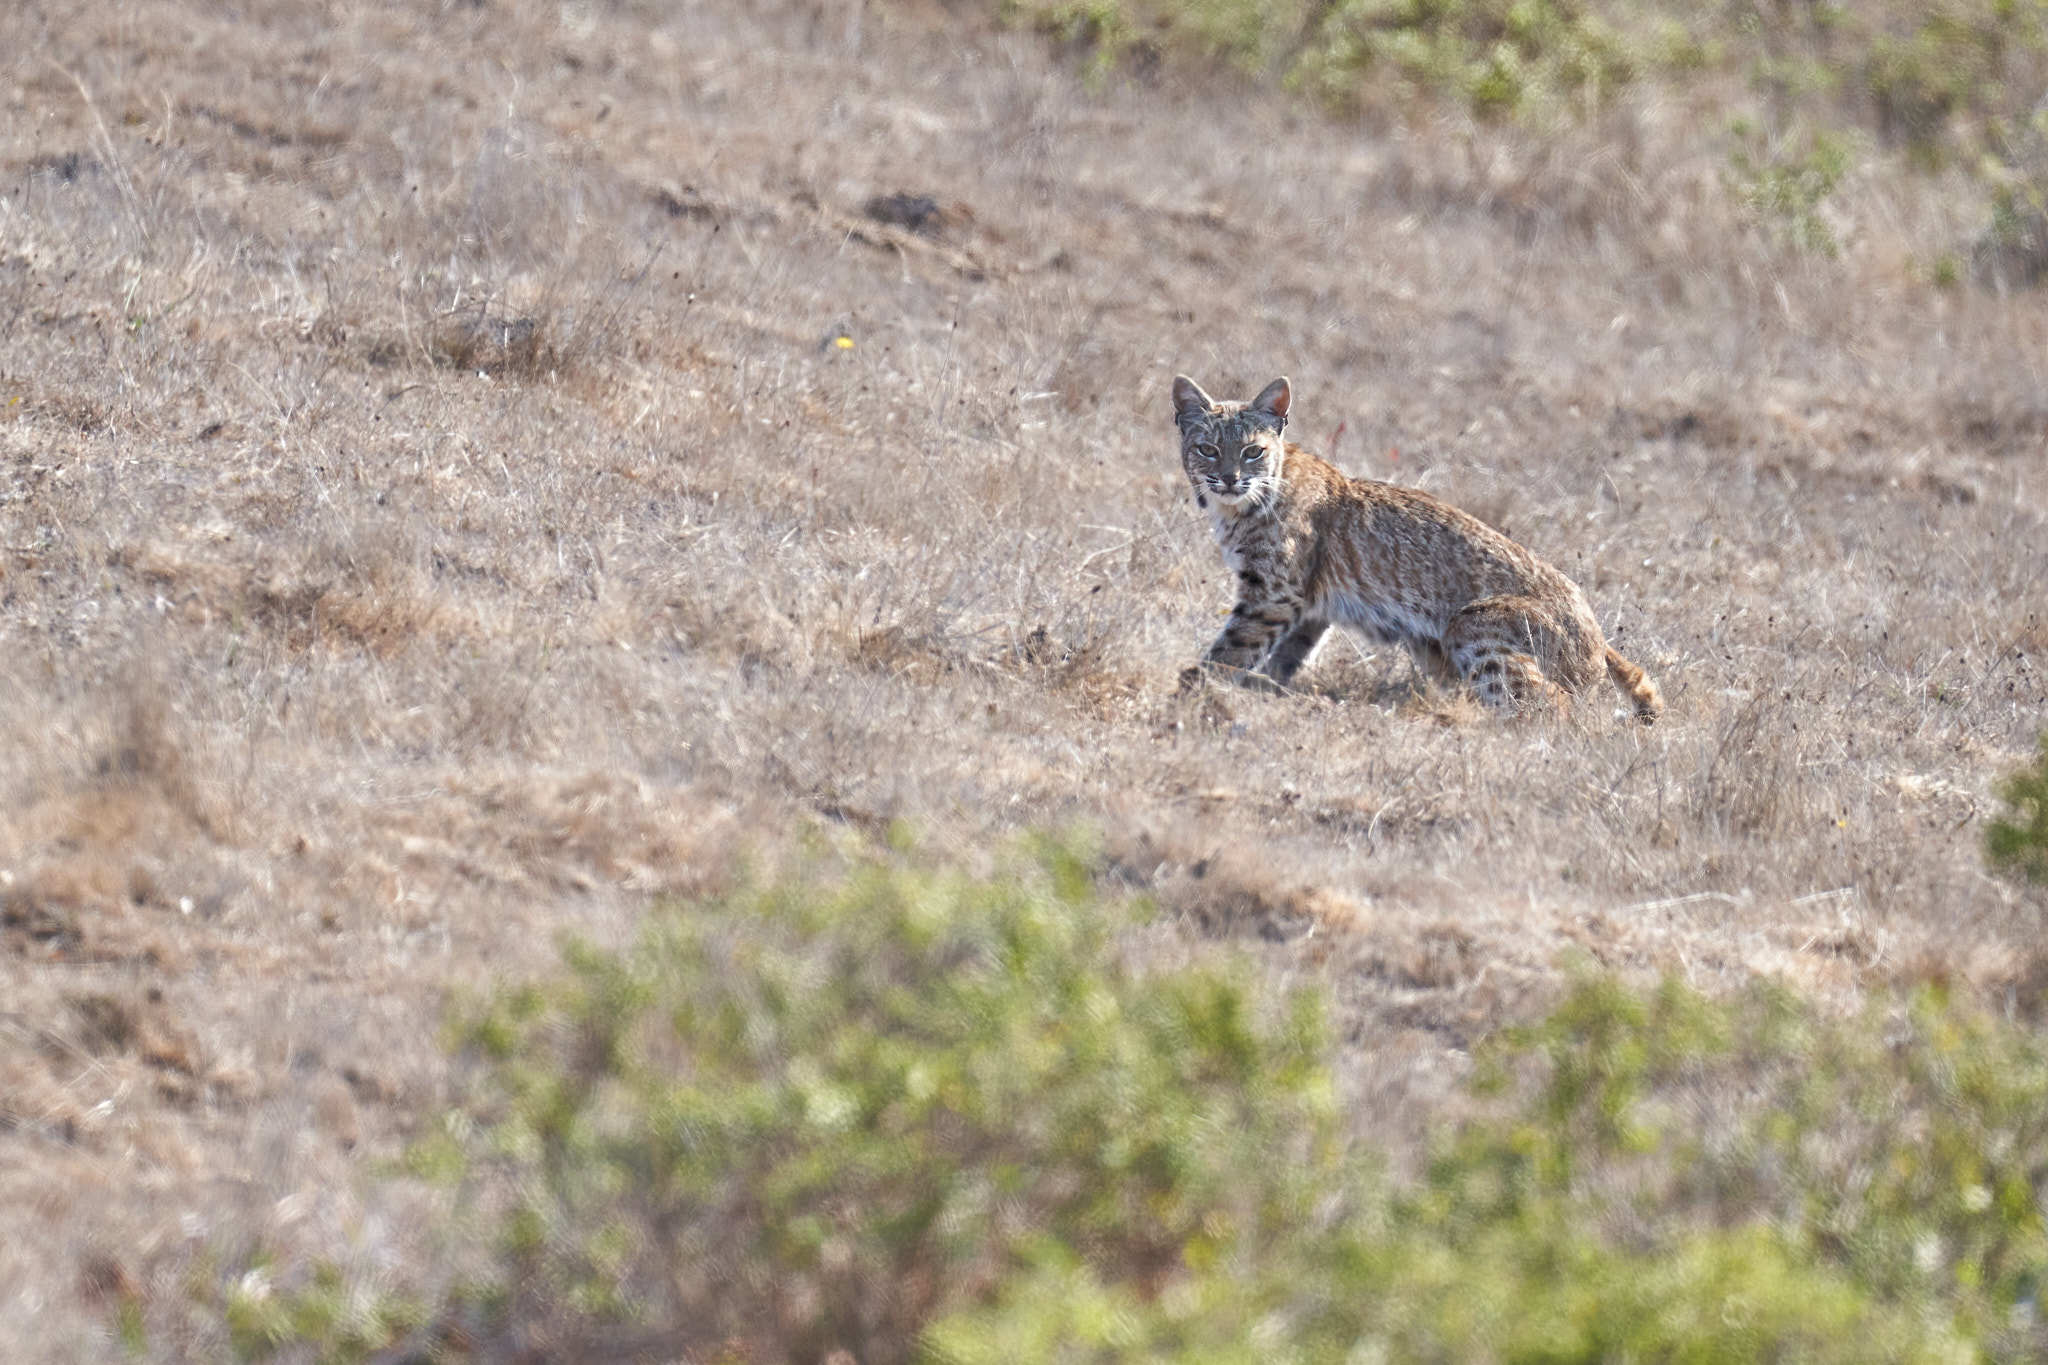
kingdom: Animalia
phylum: Chordata
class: Mammalia
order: Carnivora
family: Felidae
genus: Lynx
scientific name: Lynx rufus
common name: Bobcat
